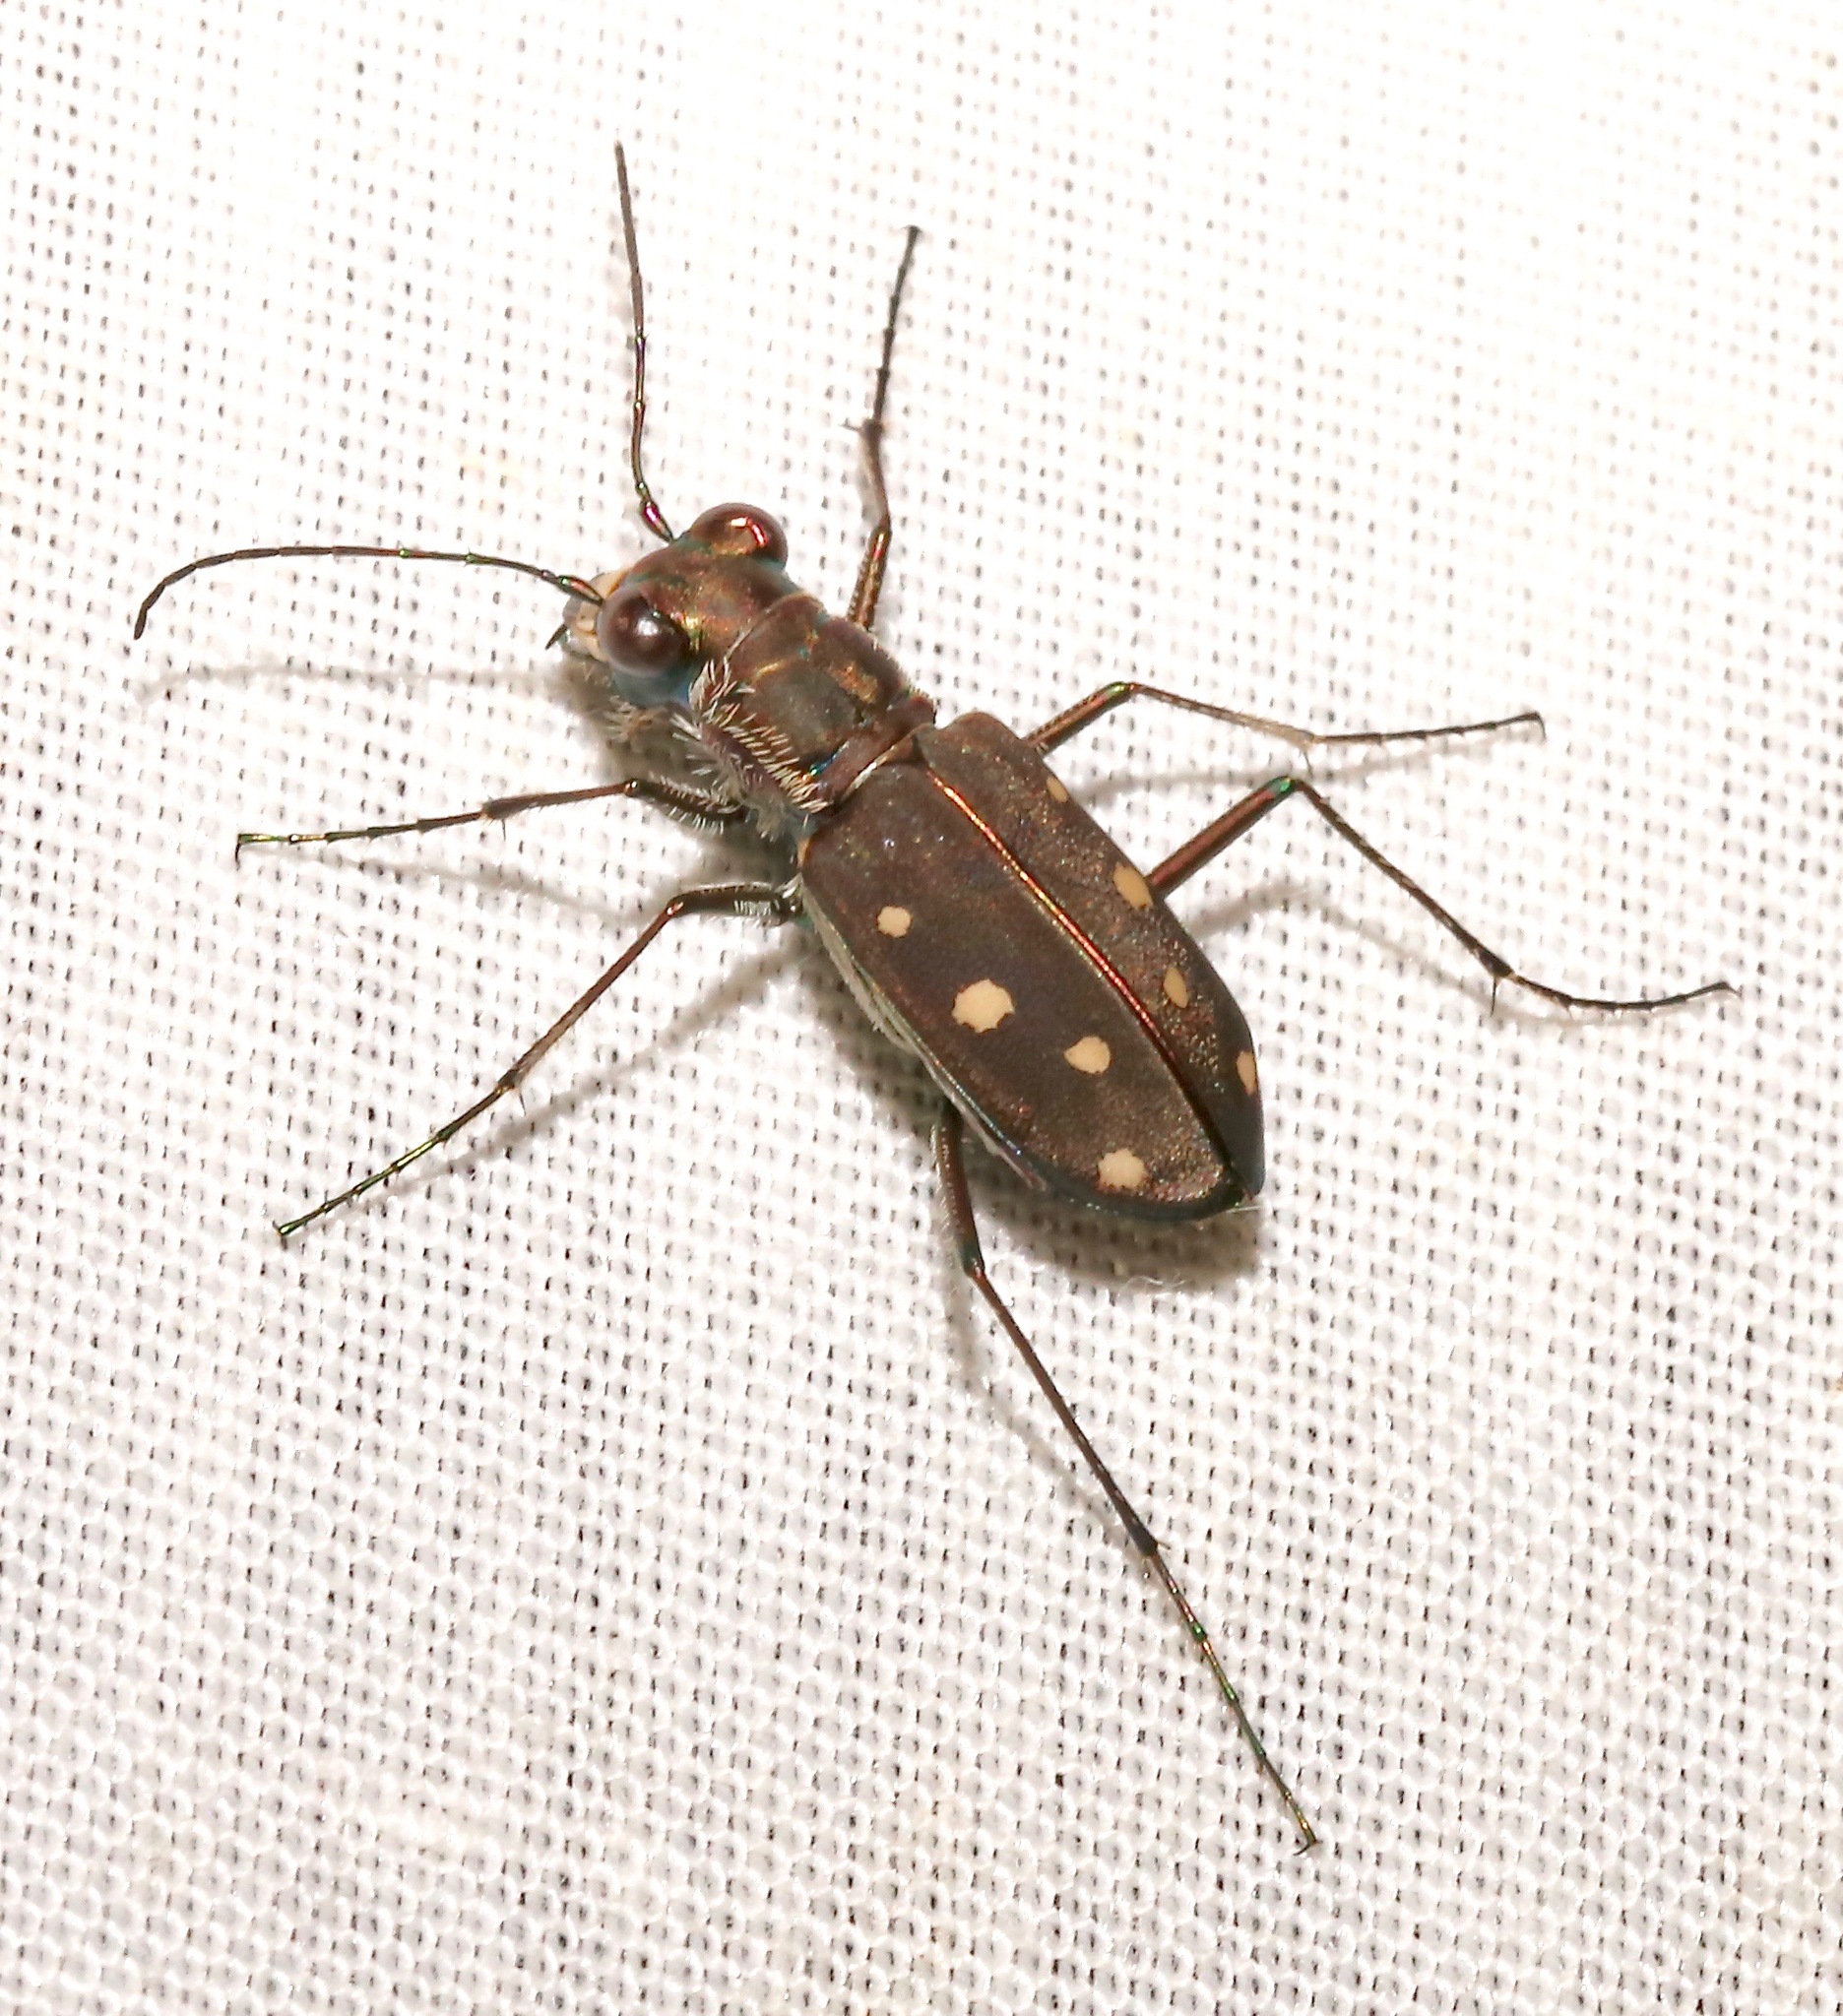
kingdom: Animalia
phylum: Arthropoda
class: Insecta
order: Coleoptera
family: Carabidae
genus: Cicindela
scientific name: Cicindela ocellata
